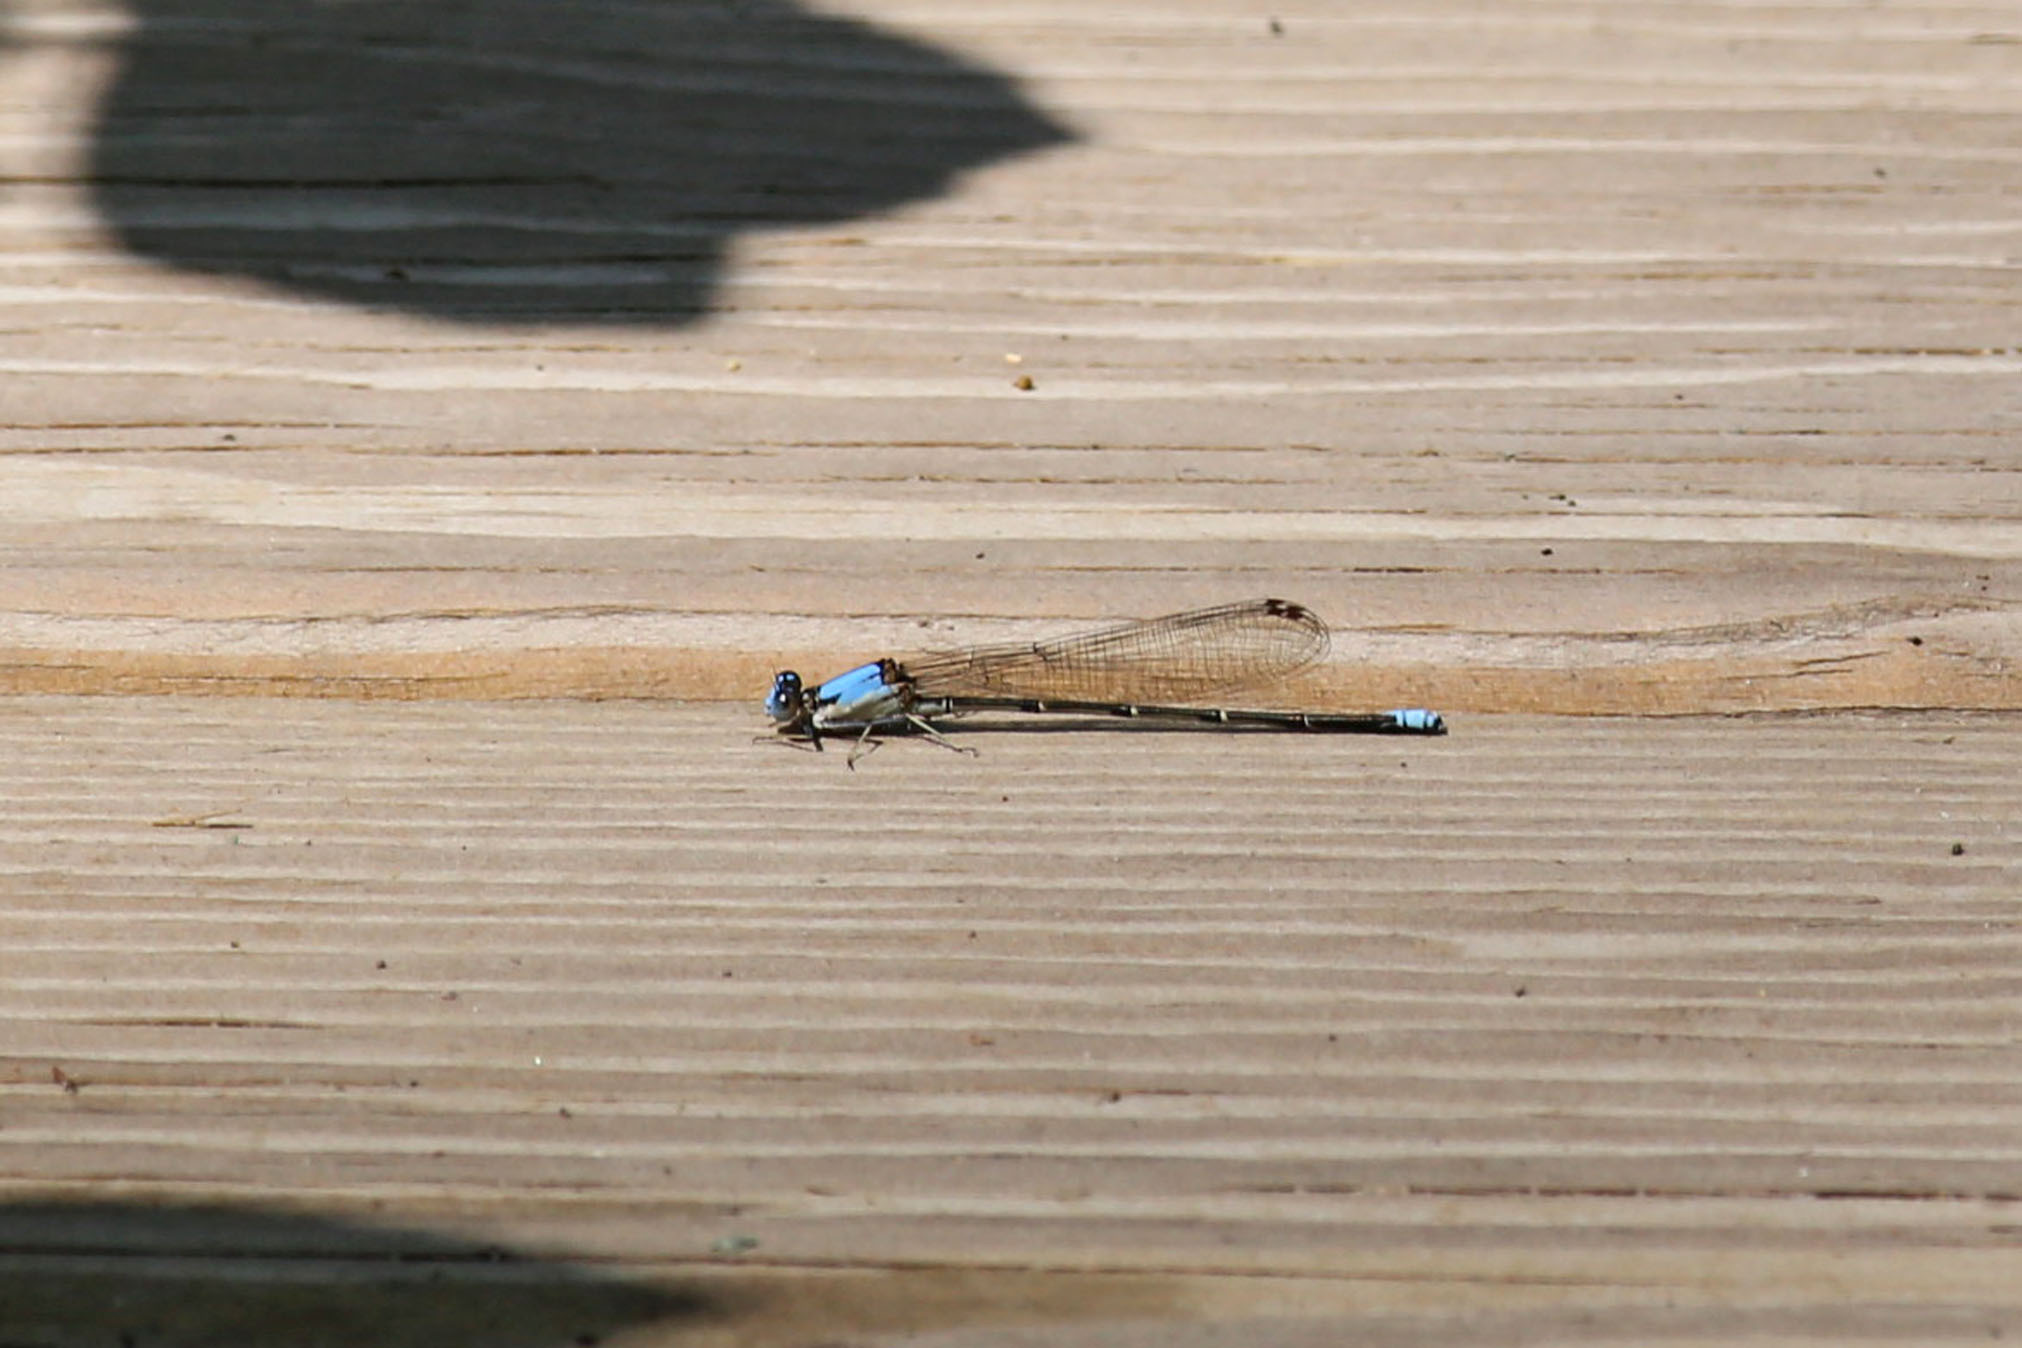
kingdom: Animalia
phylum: Arthropoda
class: Insecta
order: Odonata
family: Coenagrionidae
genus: Argia
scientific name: Argia apicalis
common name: Blue-fronted dancer
